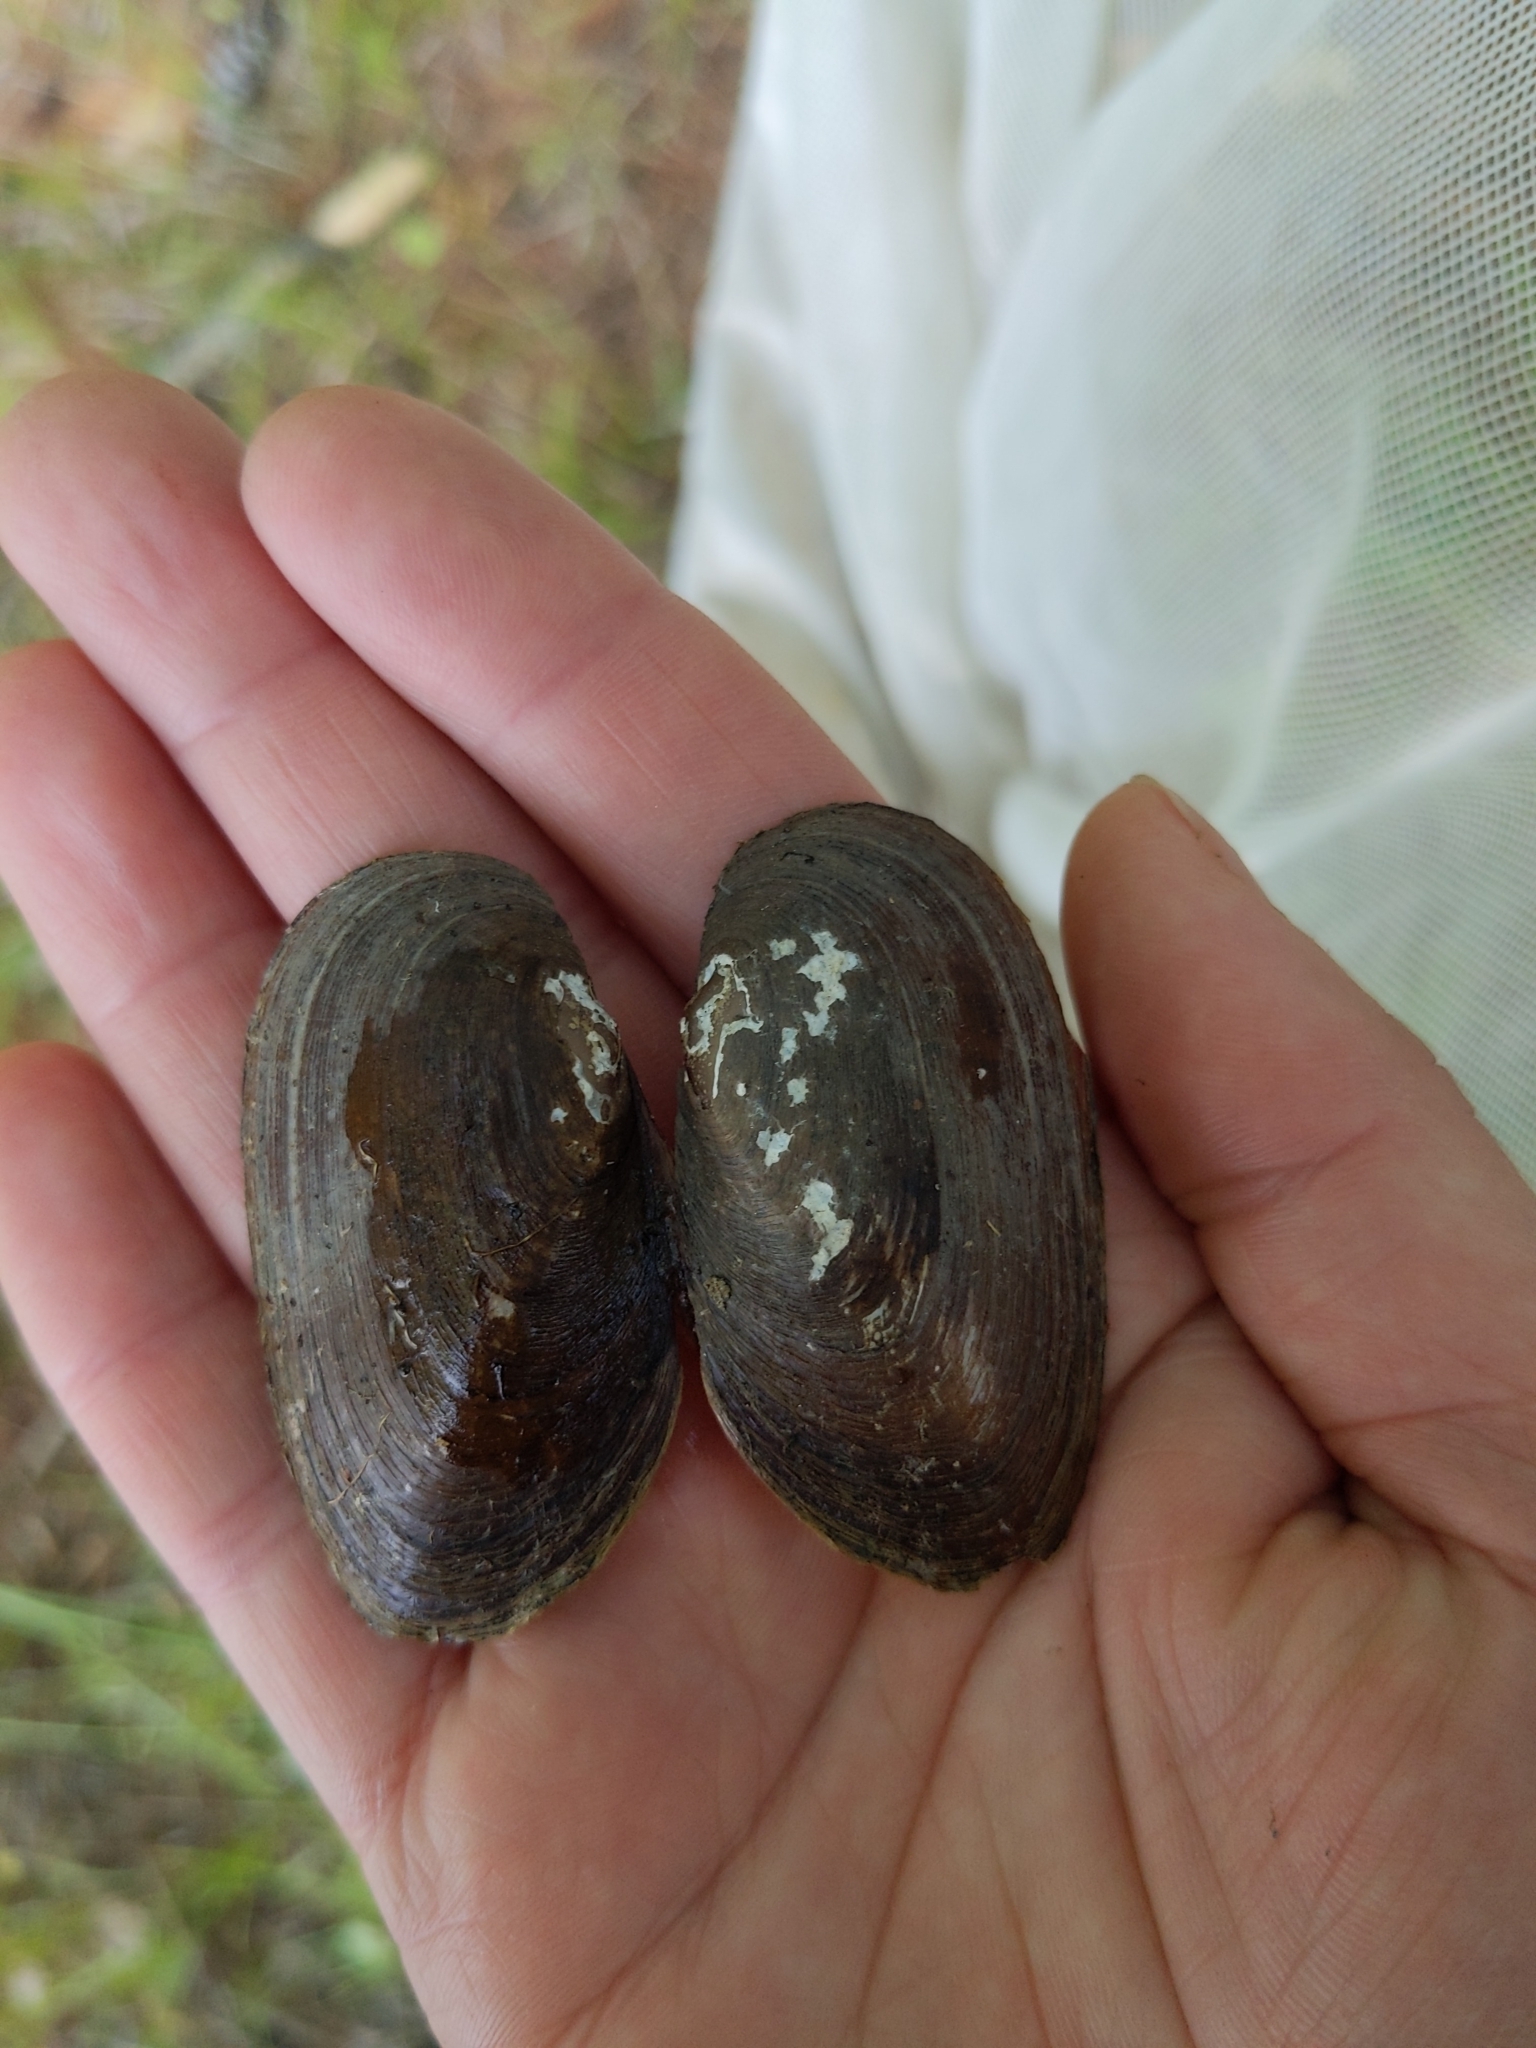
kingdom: Animalia
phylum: Mollusca
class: Bivalvia
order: Unionida
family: Unionidae
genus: Elliptio
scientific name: Elliptio complanata
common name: Eastern elliptio
